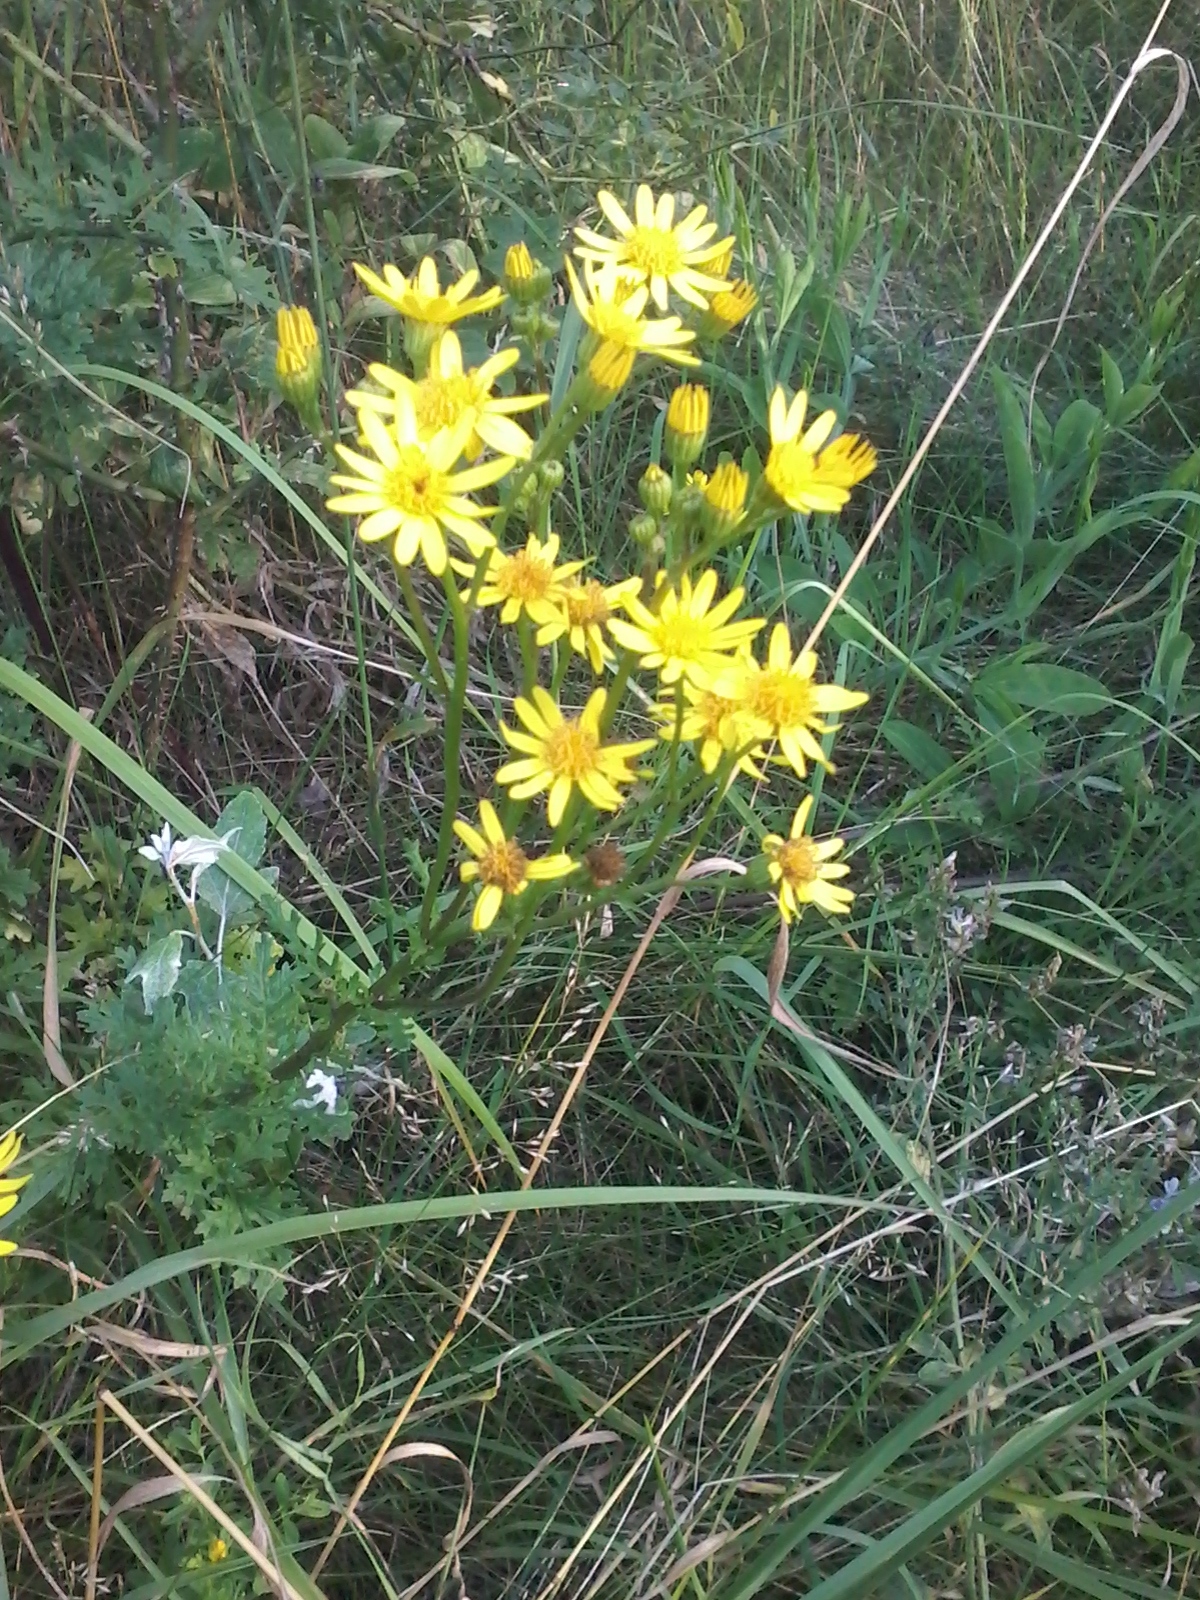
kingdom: Plantae
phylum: Tracheophyta
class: Magnoliopsida
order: Asterales
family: Asteraceae
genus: Jacobaea
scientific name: Jacobaea vulgaris
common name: Stinking willie
